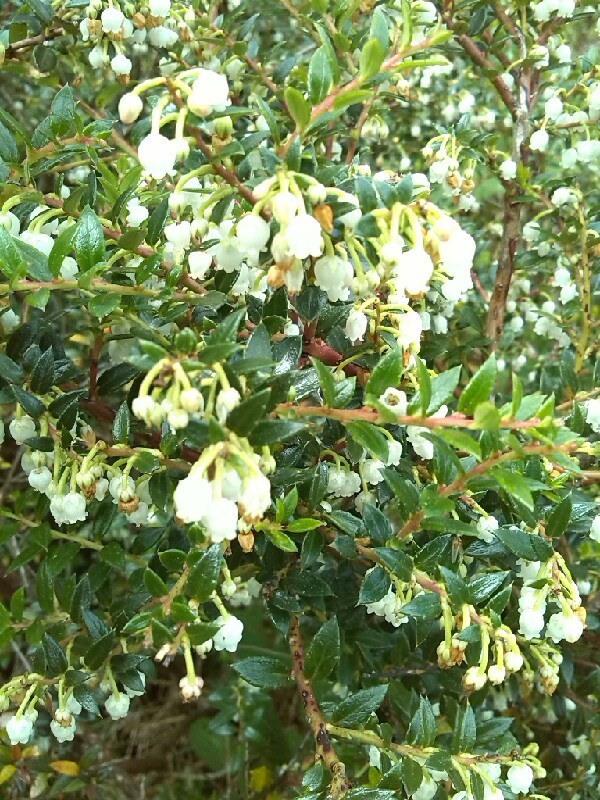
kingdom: Plantae
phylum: Tracheophyta
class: Magnoliopsida
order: Ericales
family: Ericaceae
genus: Gaultheria
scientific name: Gaultheria mucronata
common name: Prickly heath
